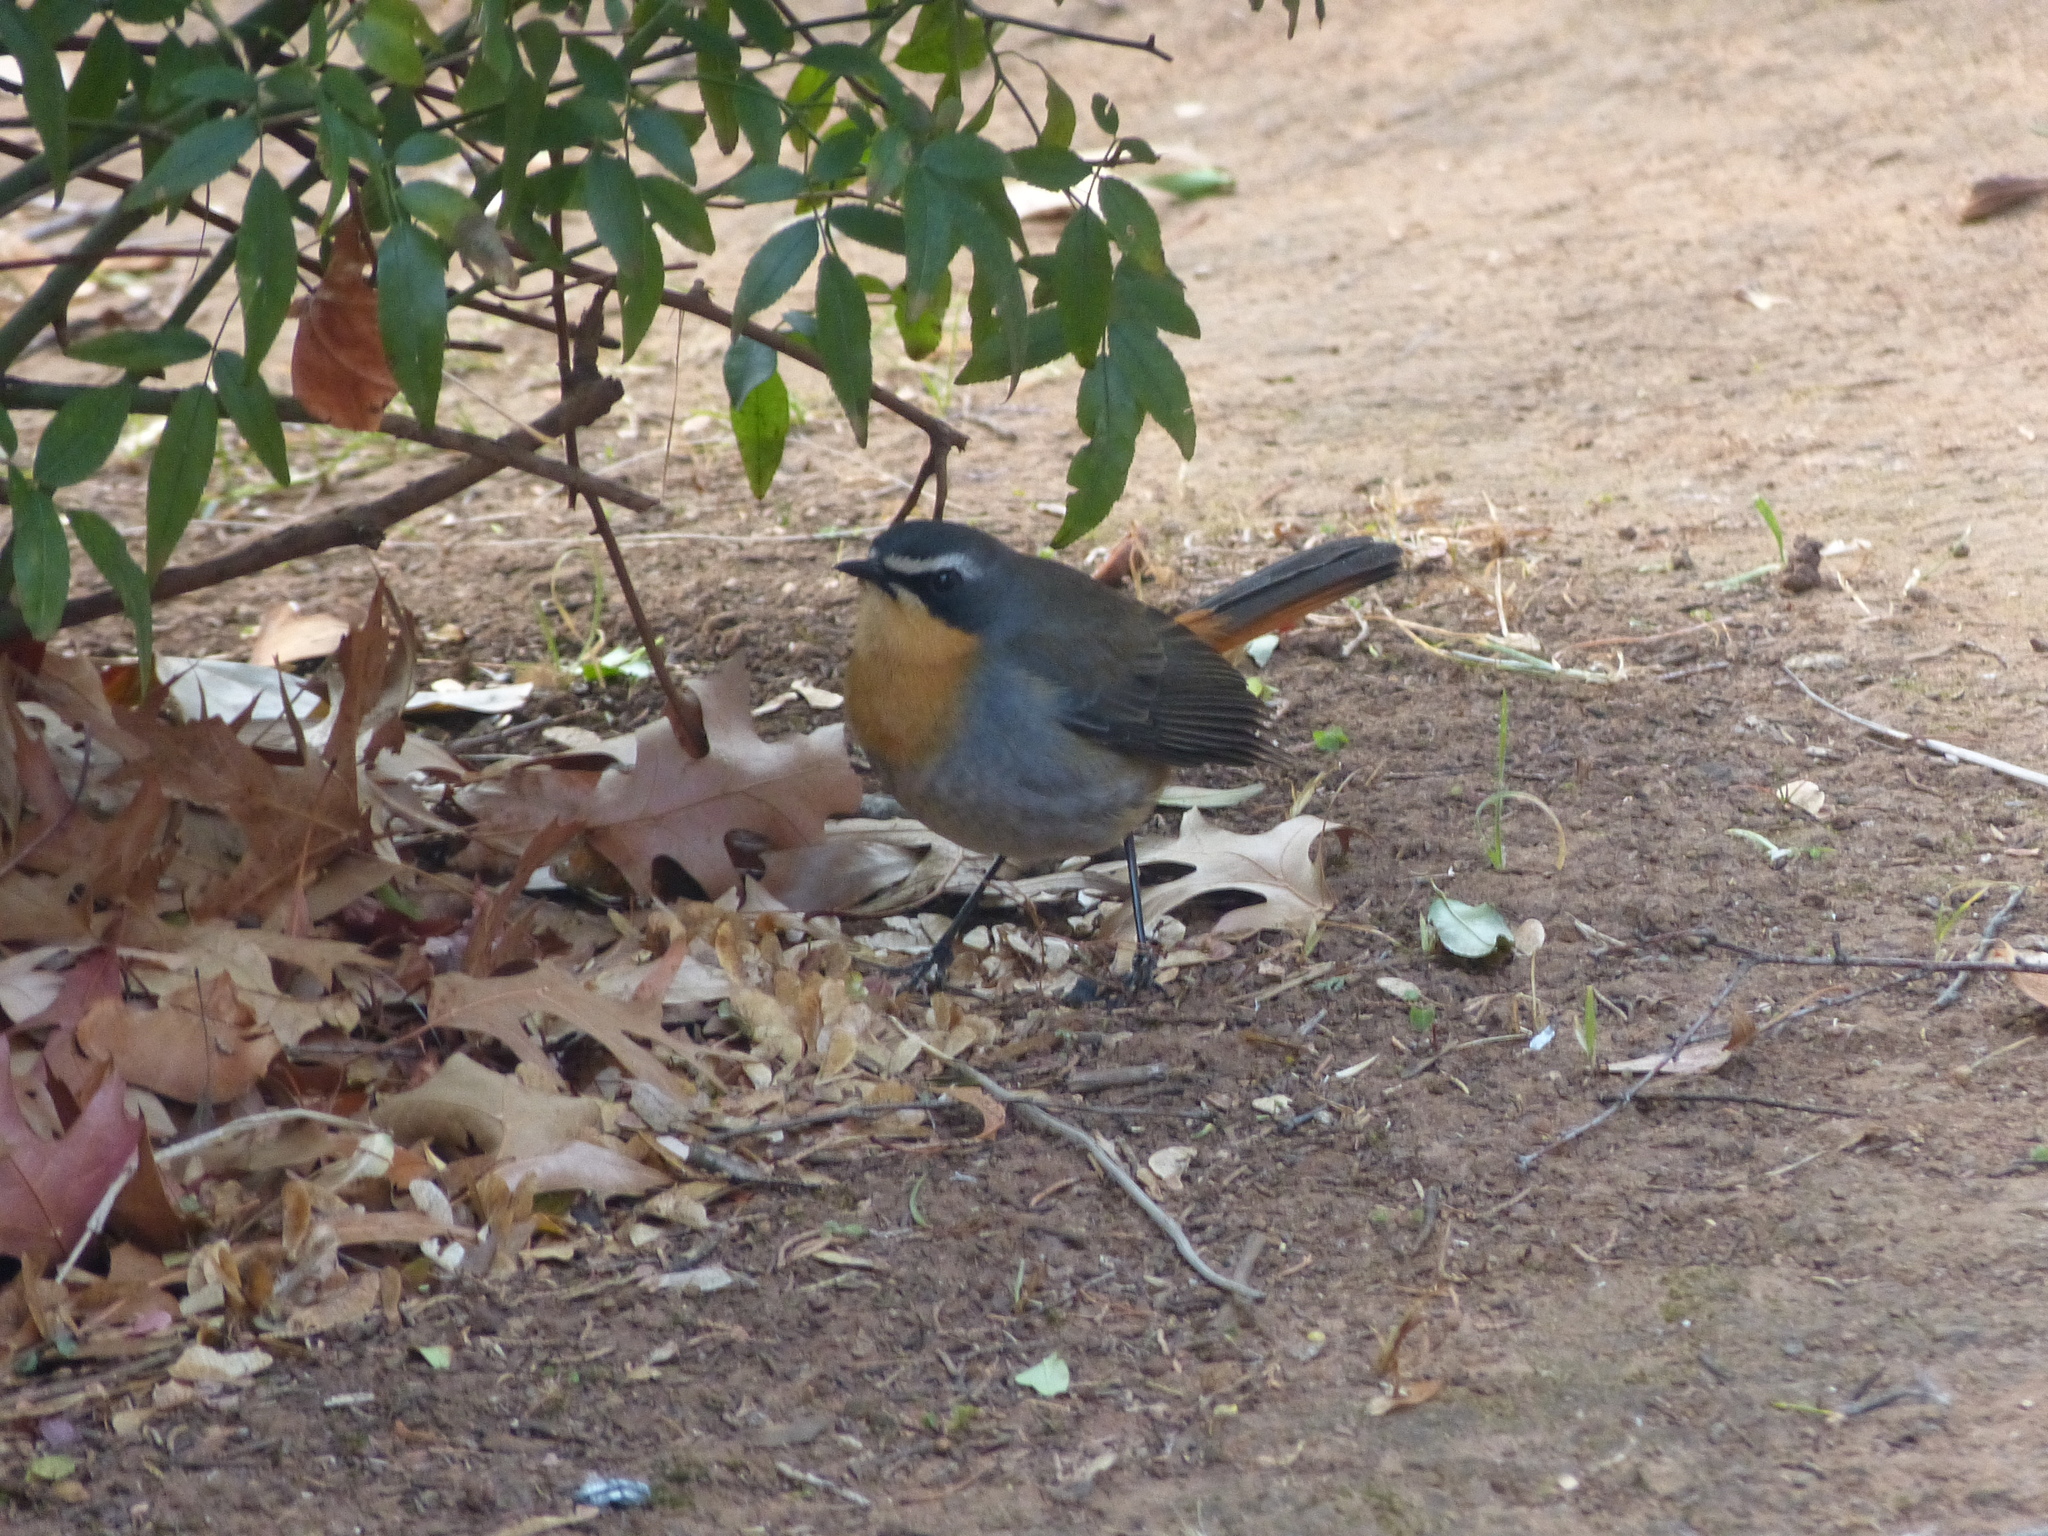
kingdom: Animalia
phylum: Chordata
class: Aves
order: Passeriformes
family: Muscicapidae
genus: Cossypha
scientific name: Cossypha caffra
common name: Cape robin-chat
